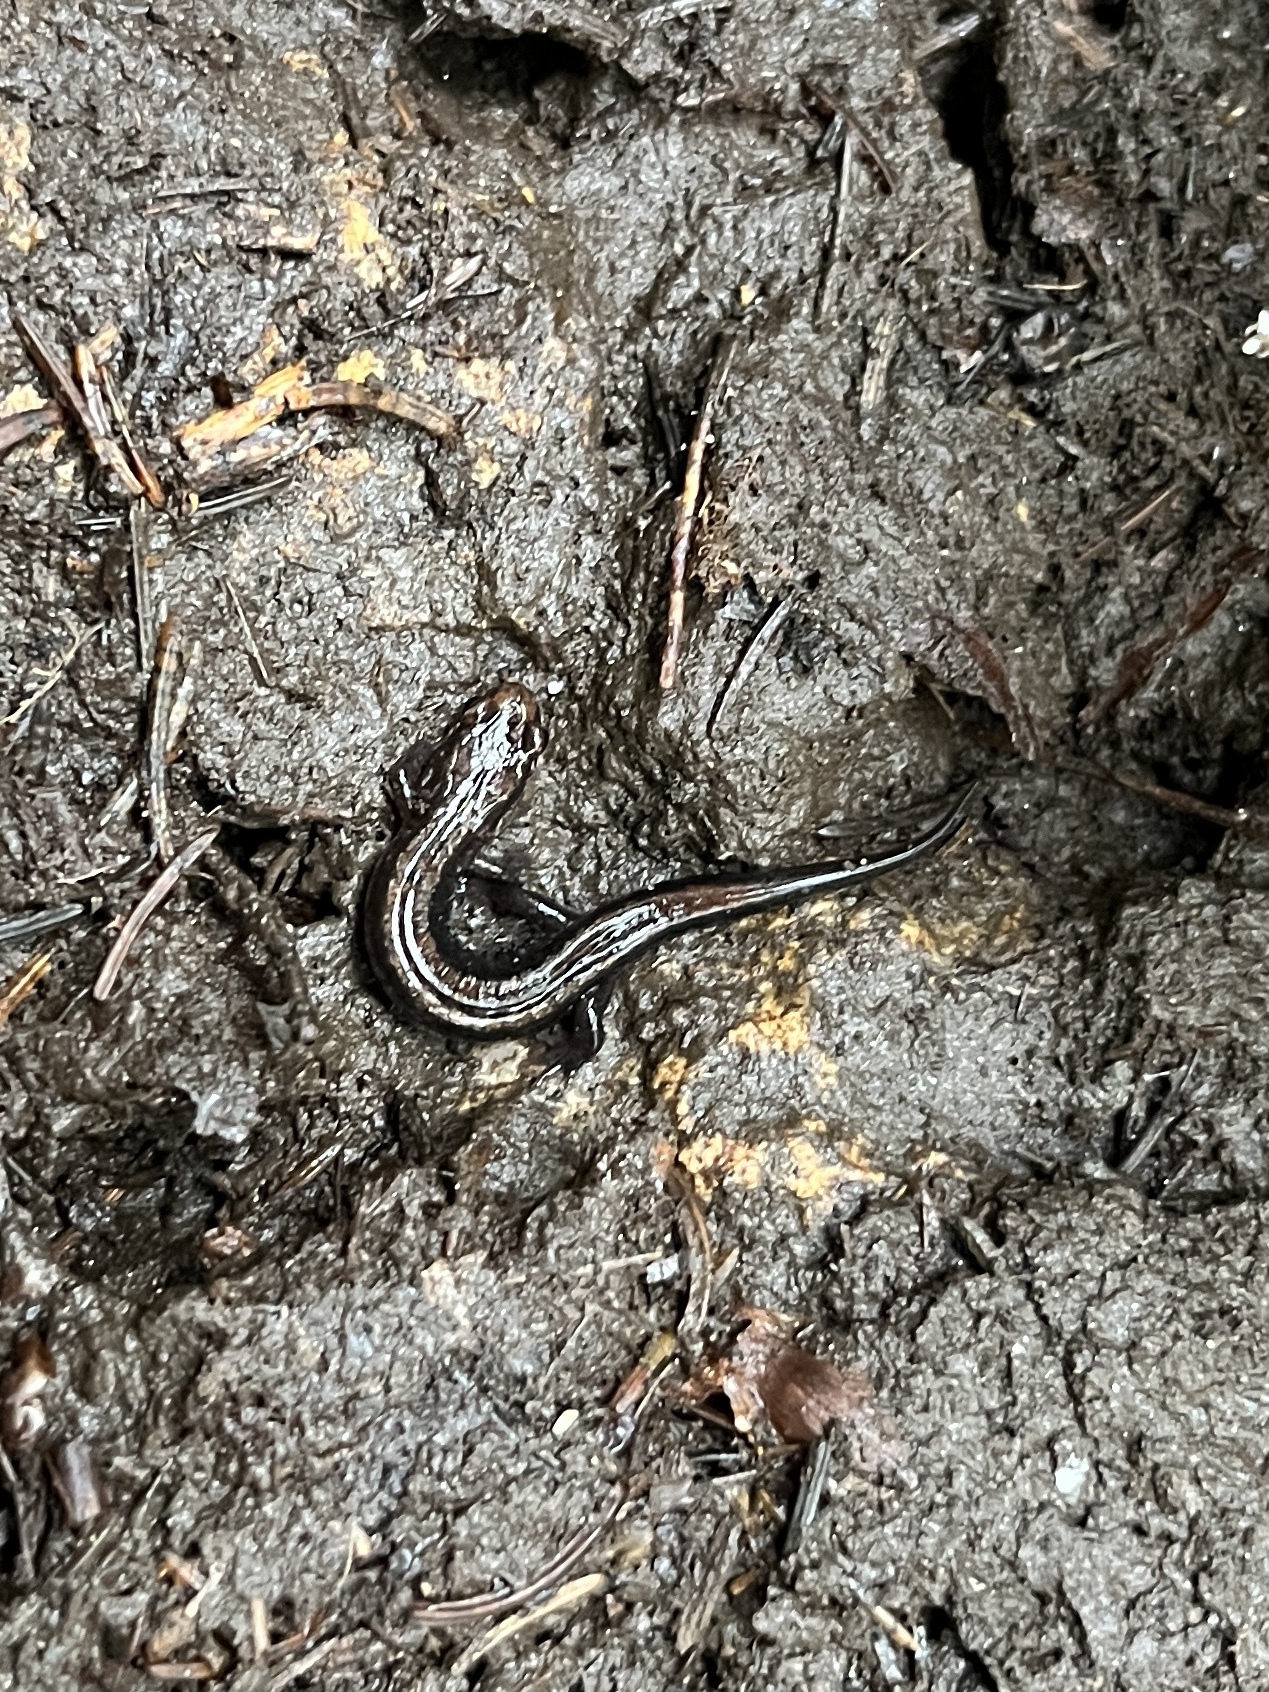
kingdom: Animalia
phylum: Chordata
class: Amphibia
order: Caudata
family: Plethodontidae
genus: Desmognathus
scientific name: Desmognathus orestes
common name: Blue ridge dusky salamander
